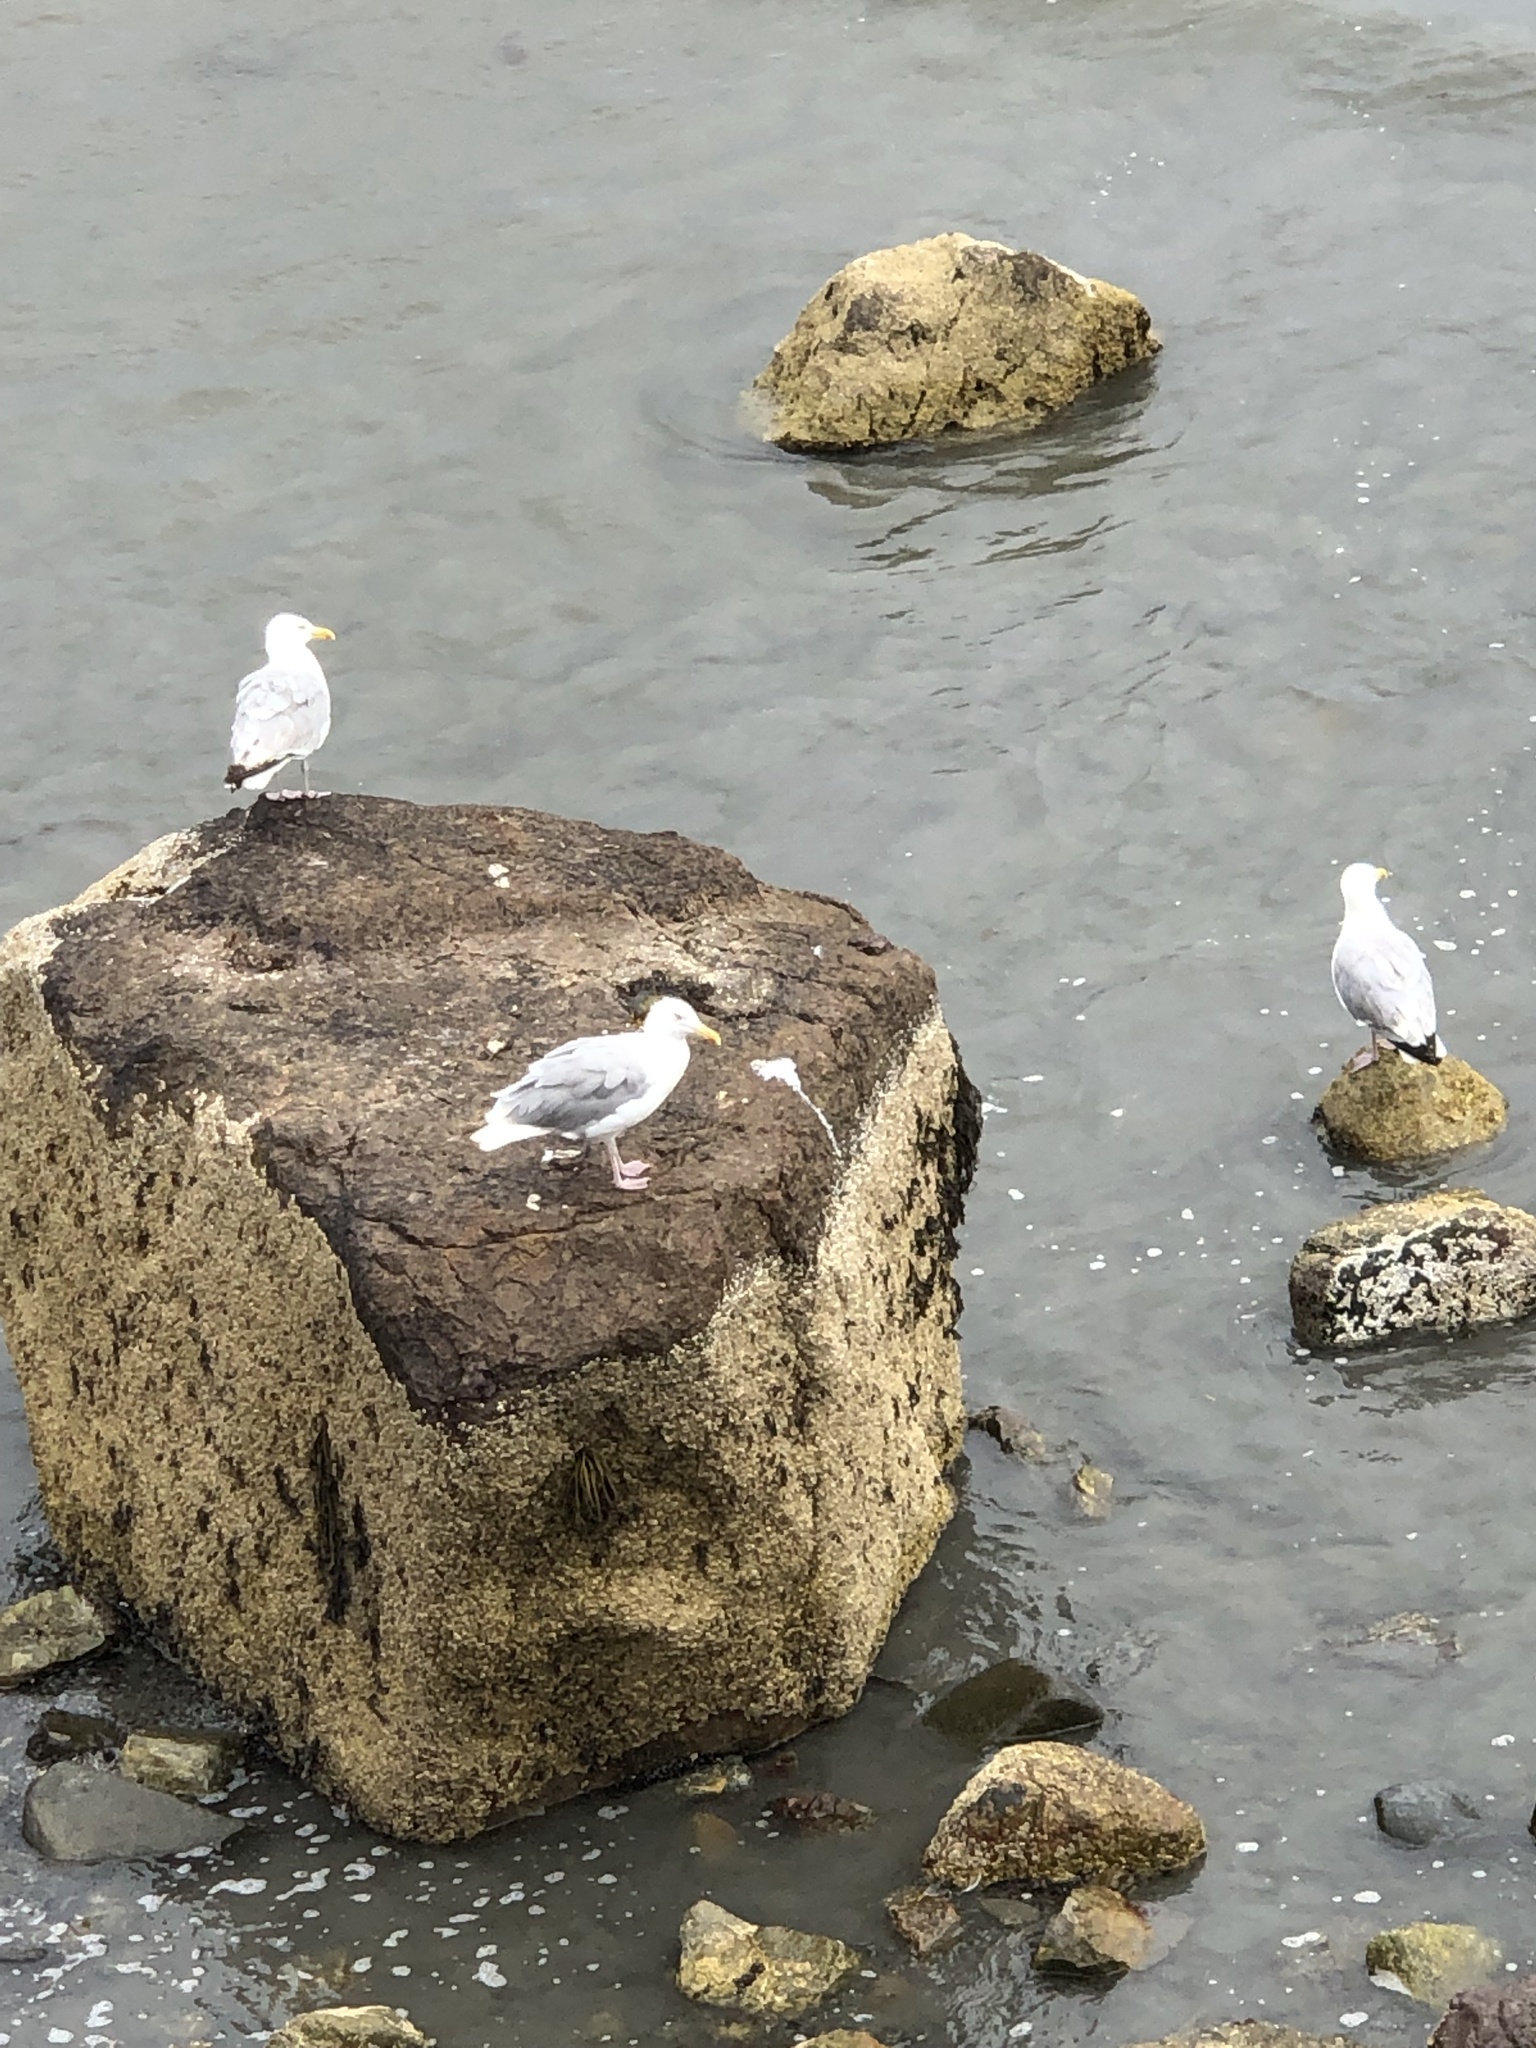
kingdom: Animalia
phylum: Chordata
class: Aves
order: Charadriiformes
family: Laridae
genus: Larus
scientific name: Larus argentatus
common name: Herring gull
